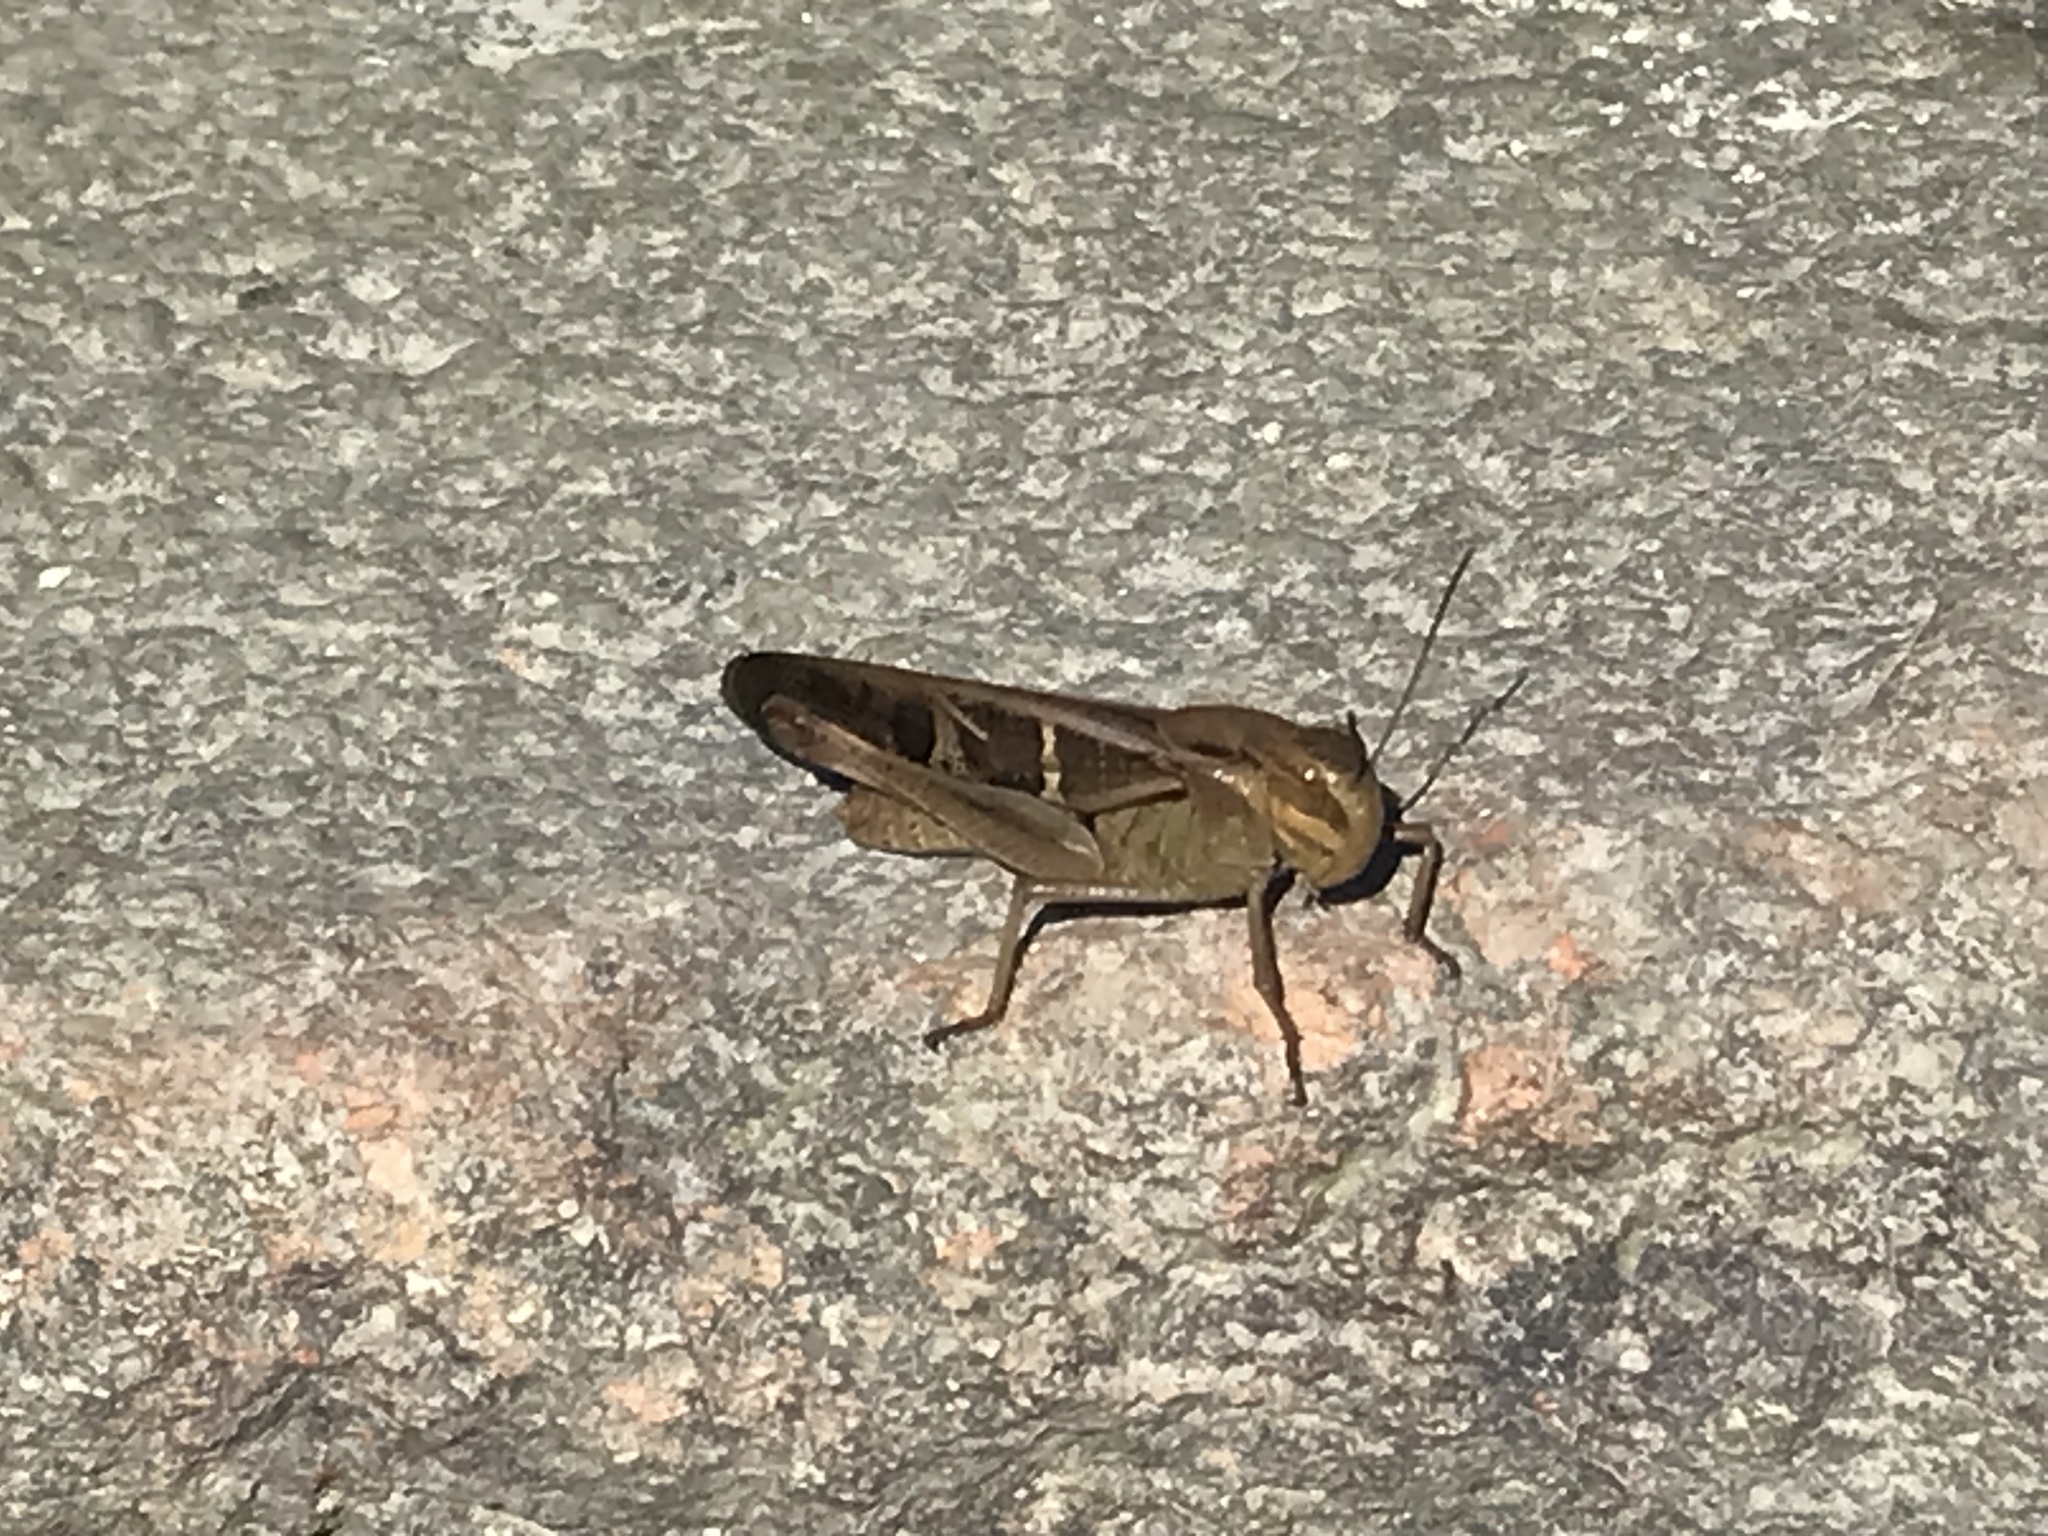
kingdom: Animalia
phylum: Arthropoda
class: Insecta
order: Orthoptera
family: Acrididae
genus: Locusta
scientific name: Locusta migratoria
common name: Migratory locust
